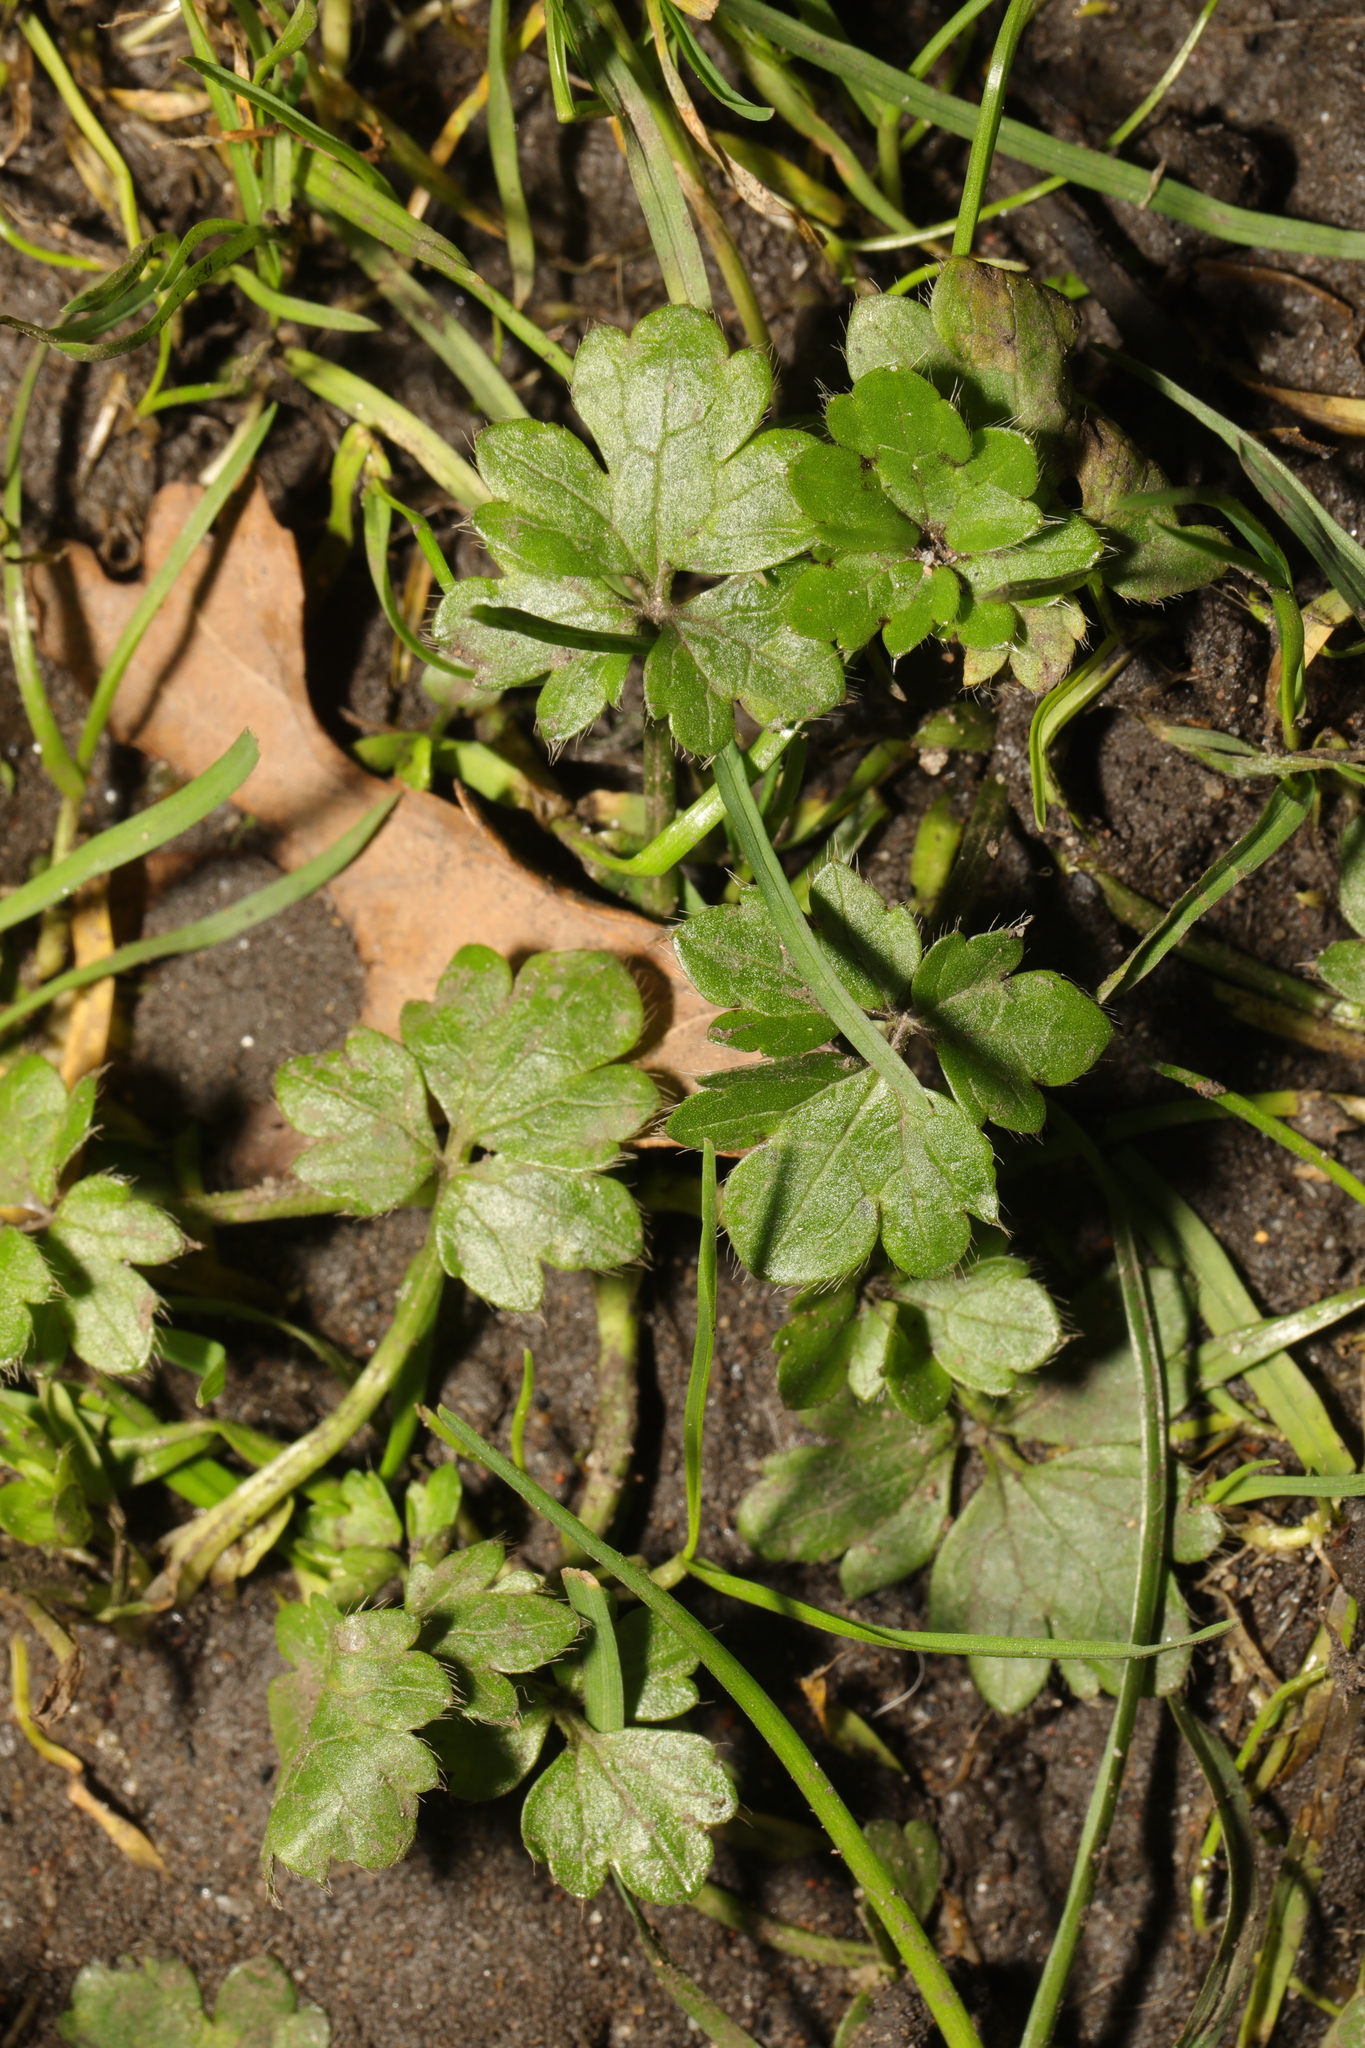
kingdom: Plantae
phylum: Tracheophyta
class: Magnoliopsida
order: Ranunculales
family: Ranunculaceae
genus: Ranunculus
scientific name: Ranunculus repens
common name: Creeping buttercup
